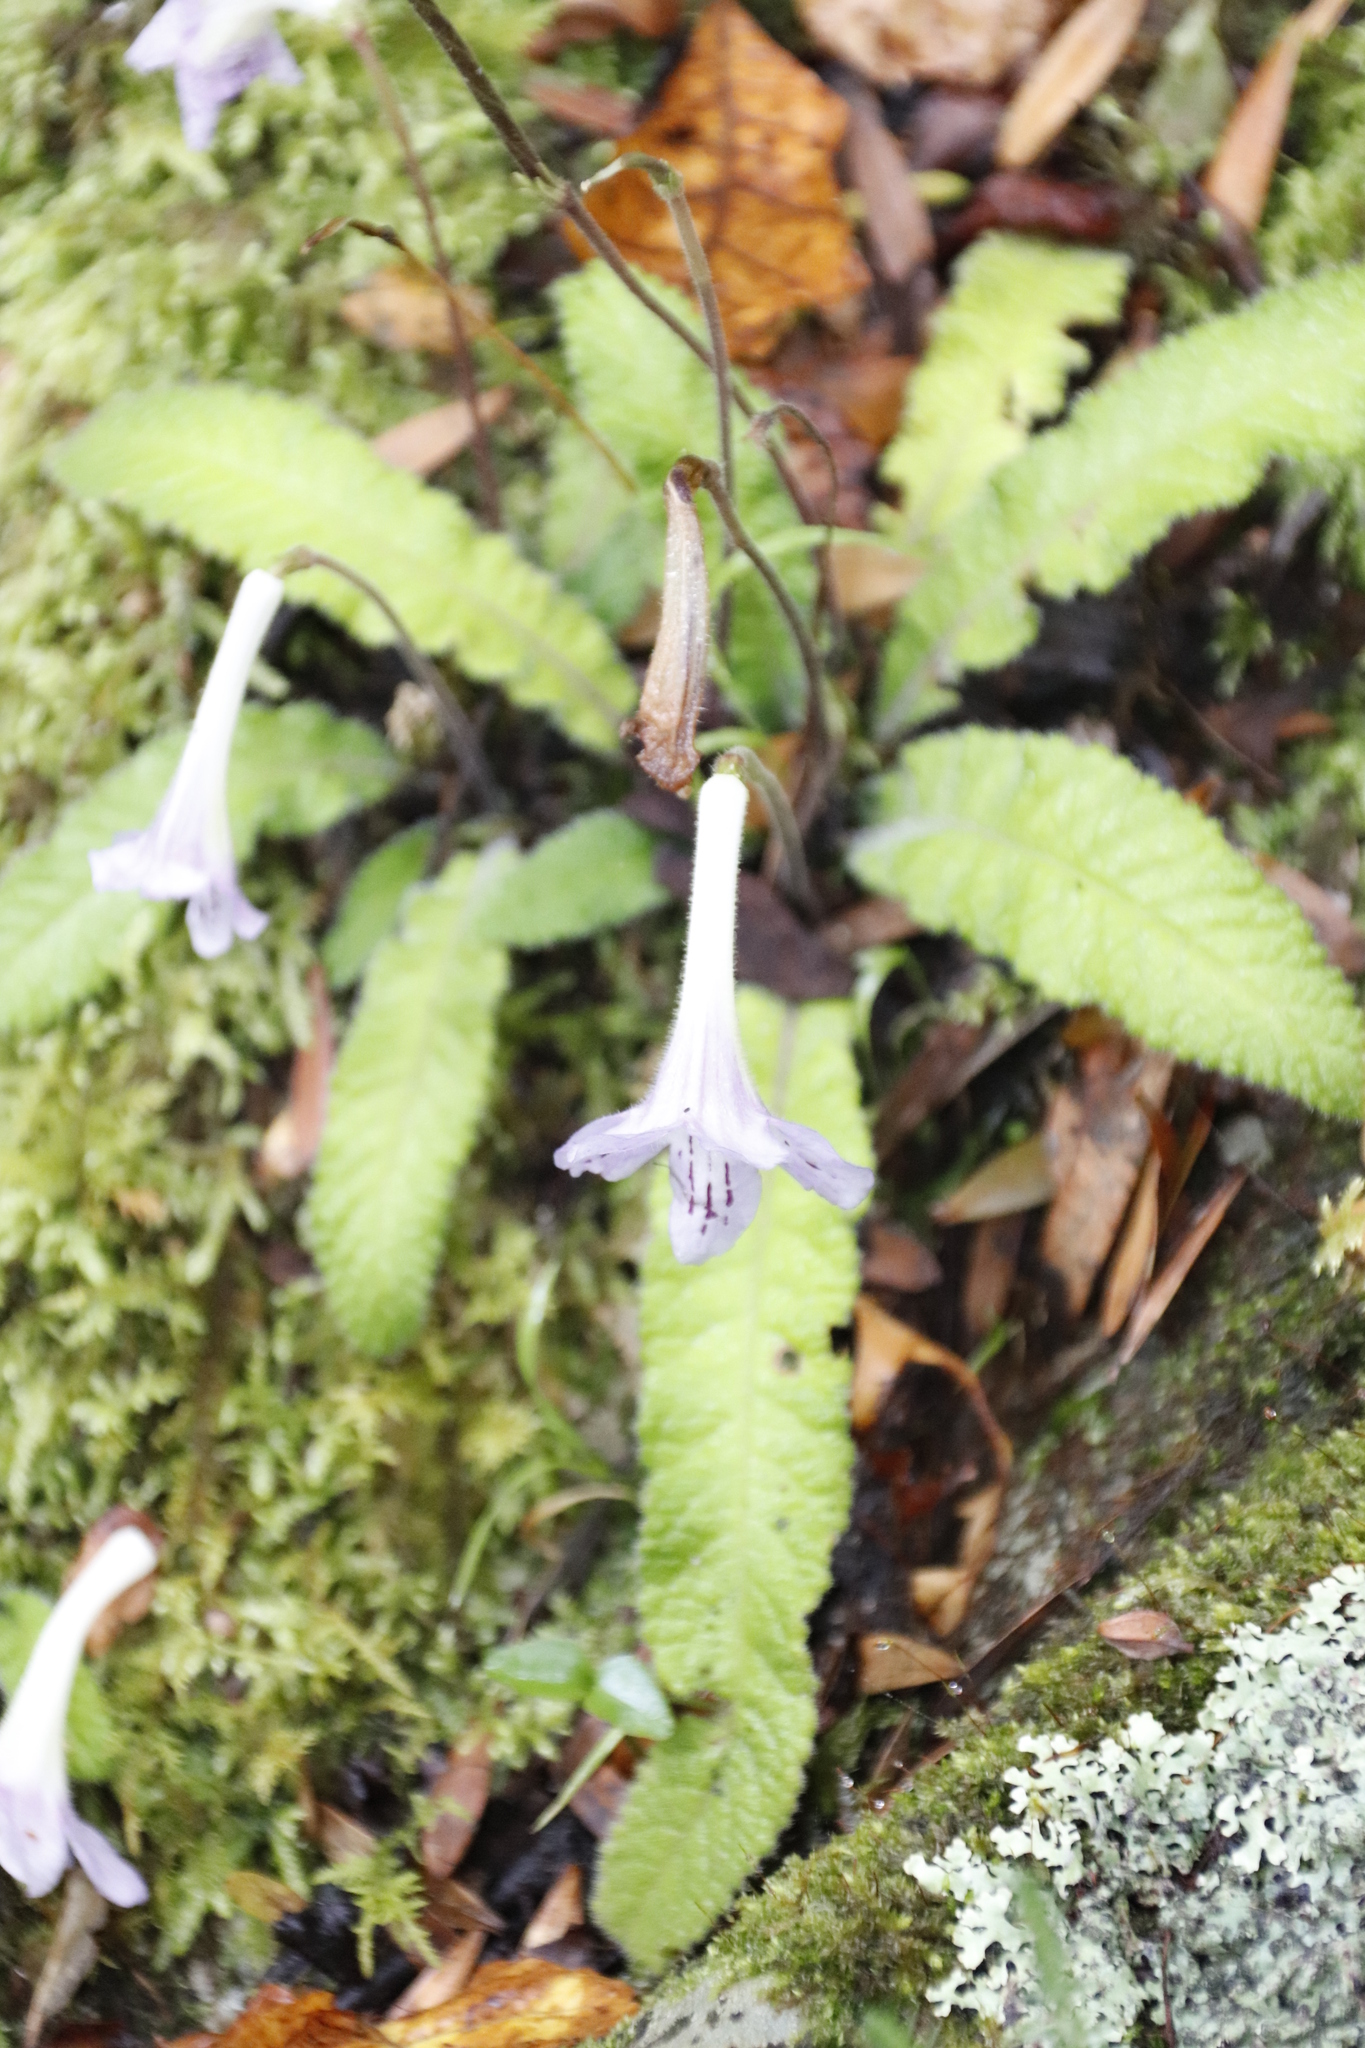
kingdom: Plantae
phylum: Tracheophyta
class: Magnoliopsida
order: Lamiales
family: Gesneriaceae
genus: Streptocarpus
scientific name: Streptocarpus gardenii
